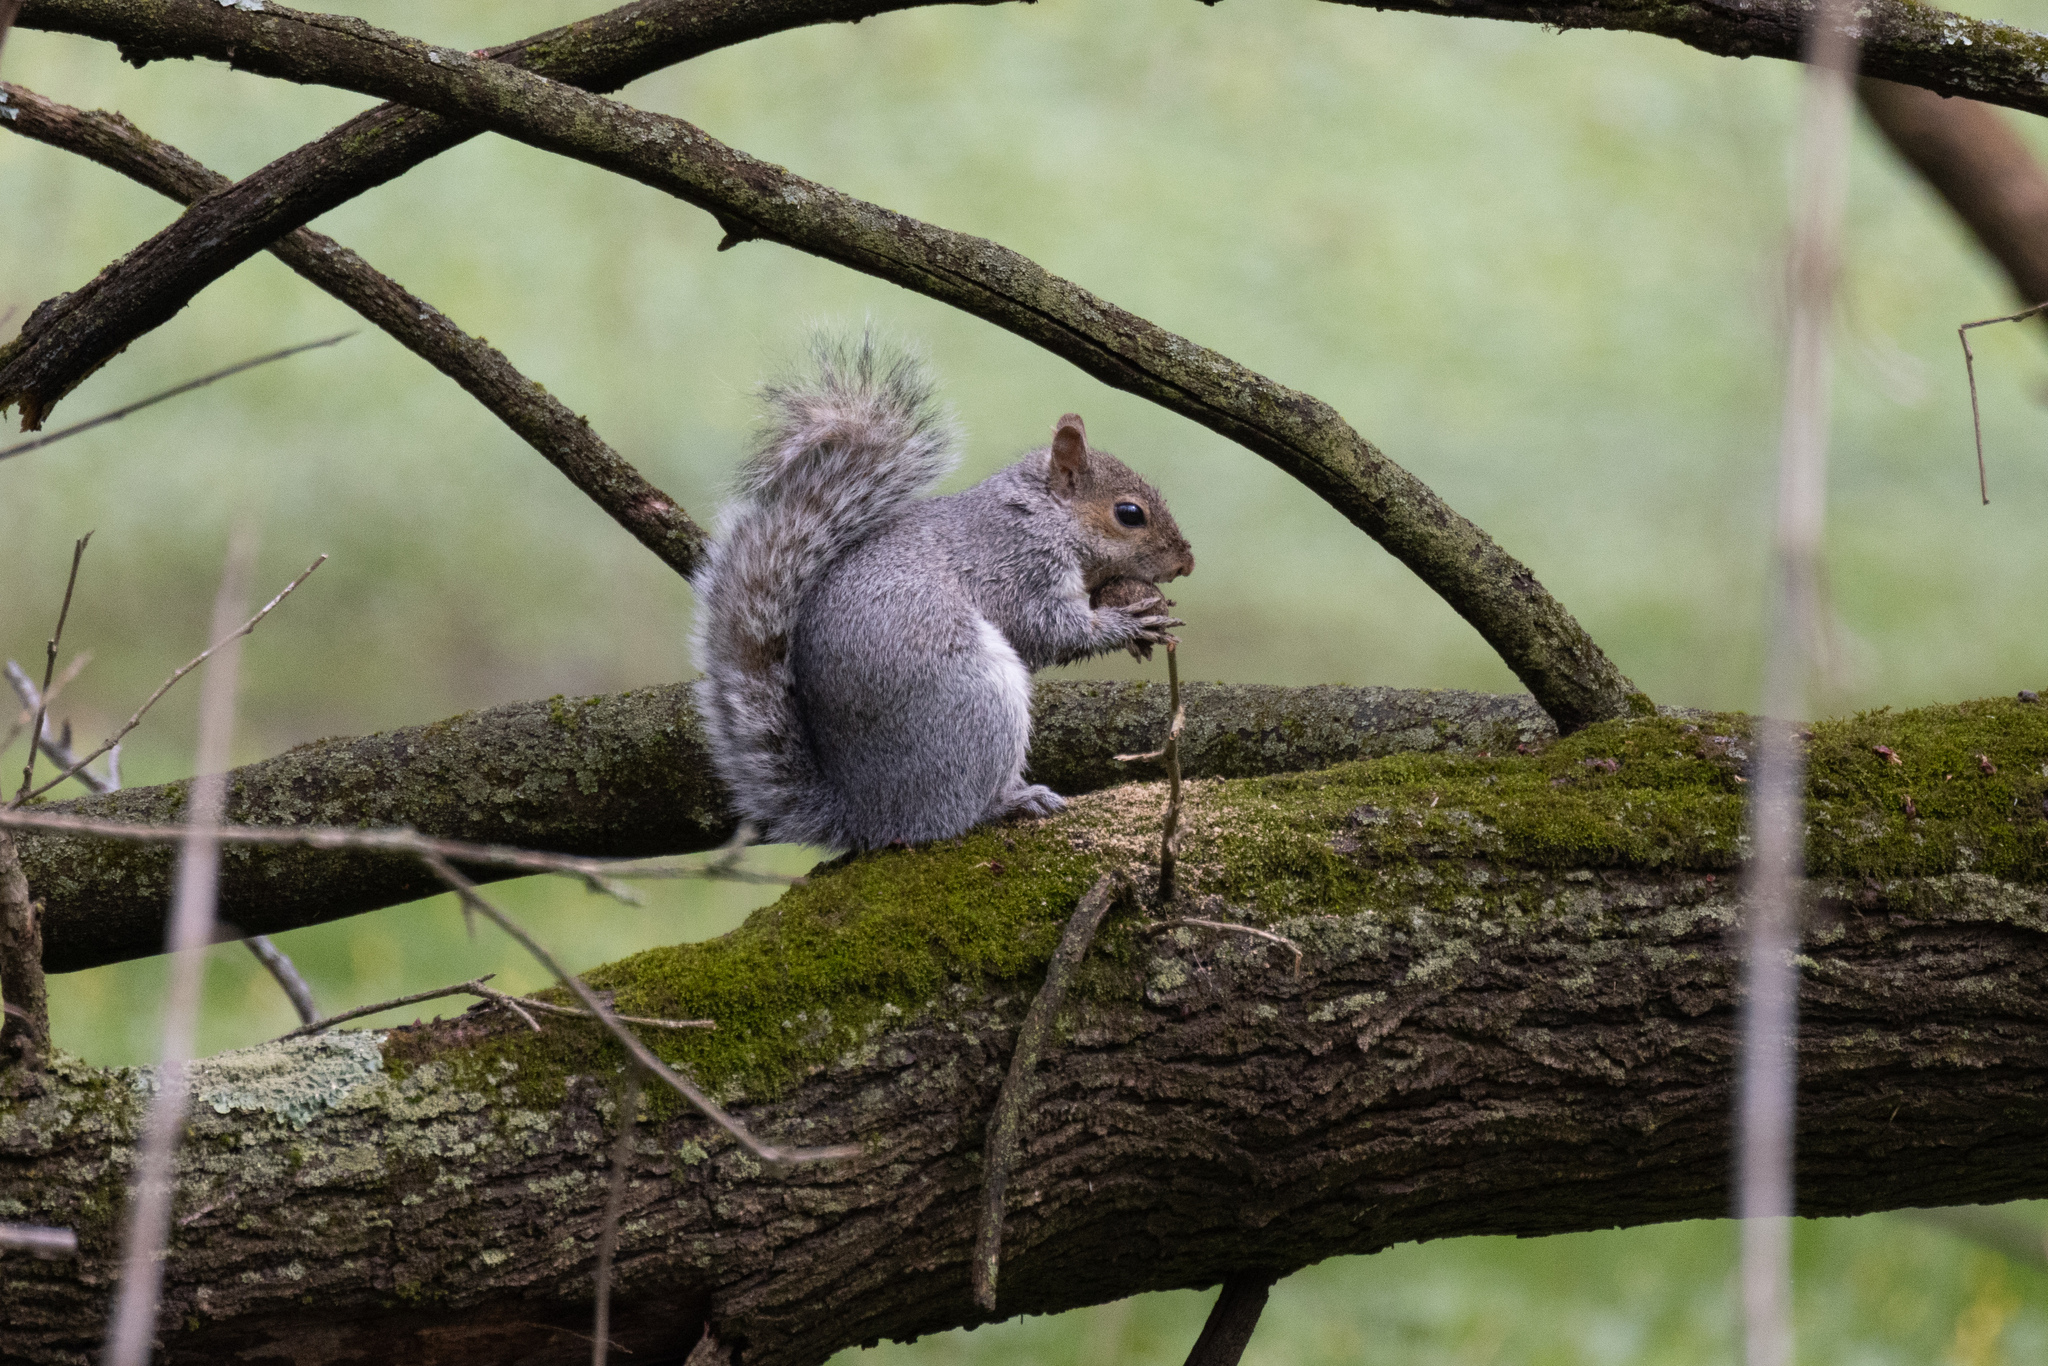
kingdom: Animalia
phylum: Chordata
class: Mammalia
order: Rodentia
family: Sciuridae
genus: Sciurus
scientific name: Sciurus carolinensis
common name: Eastern gray squirrel
